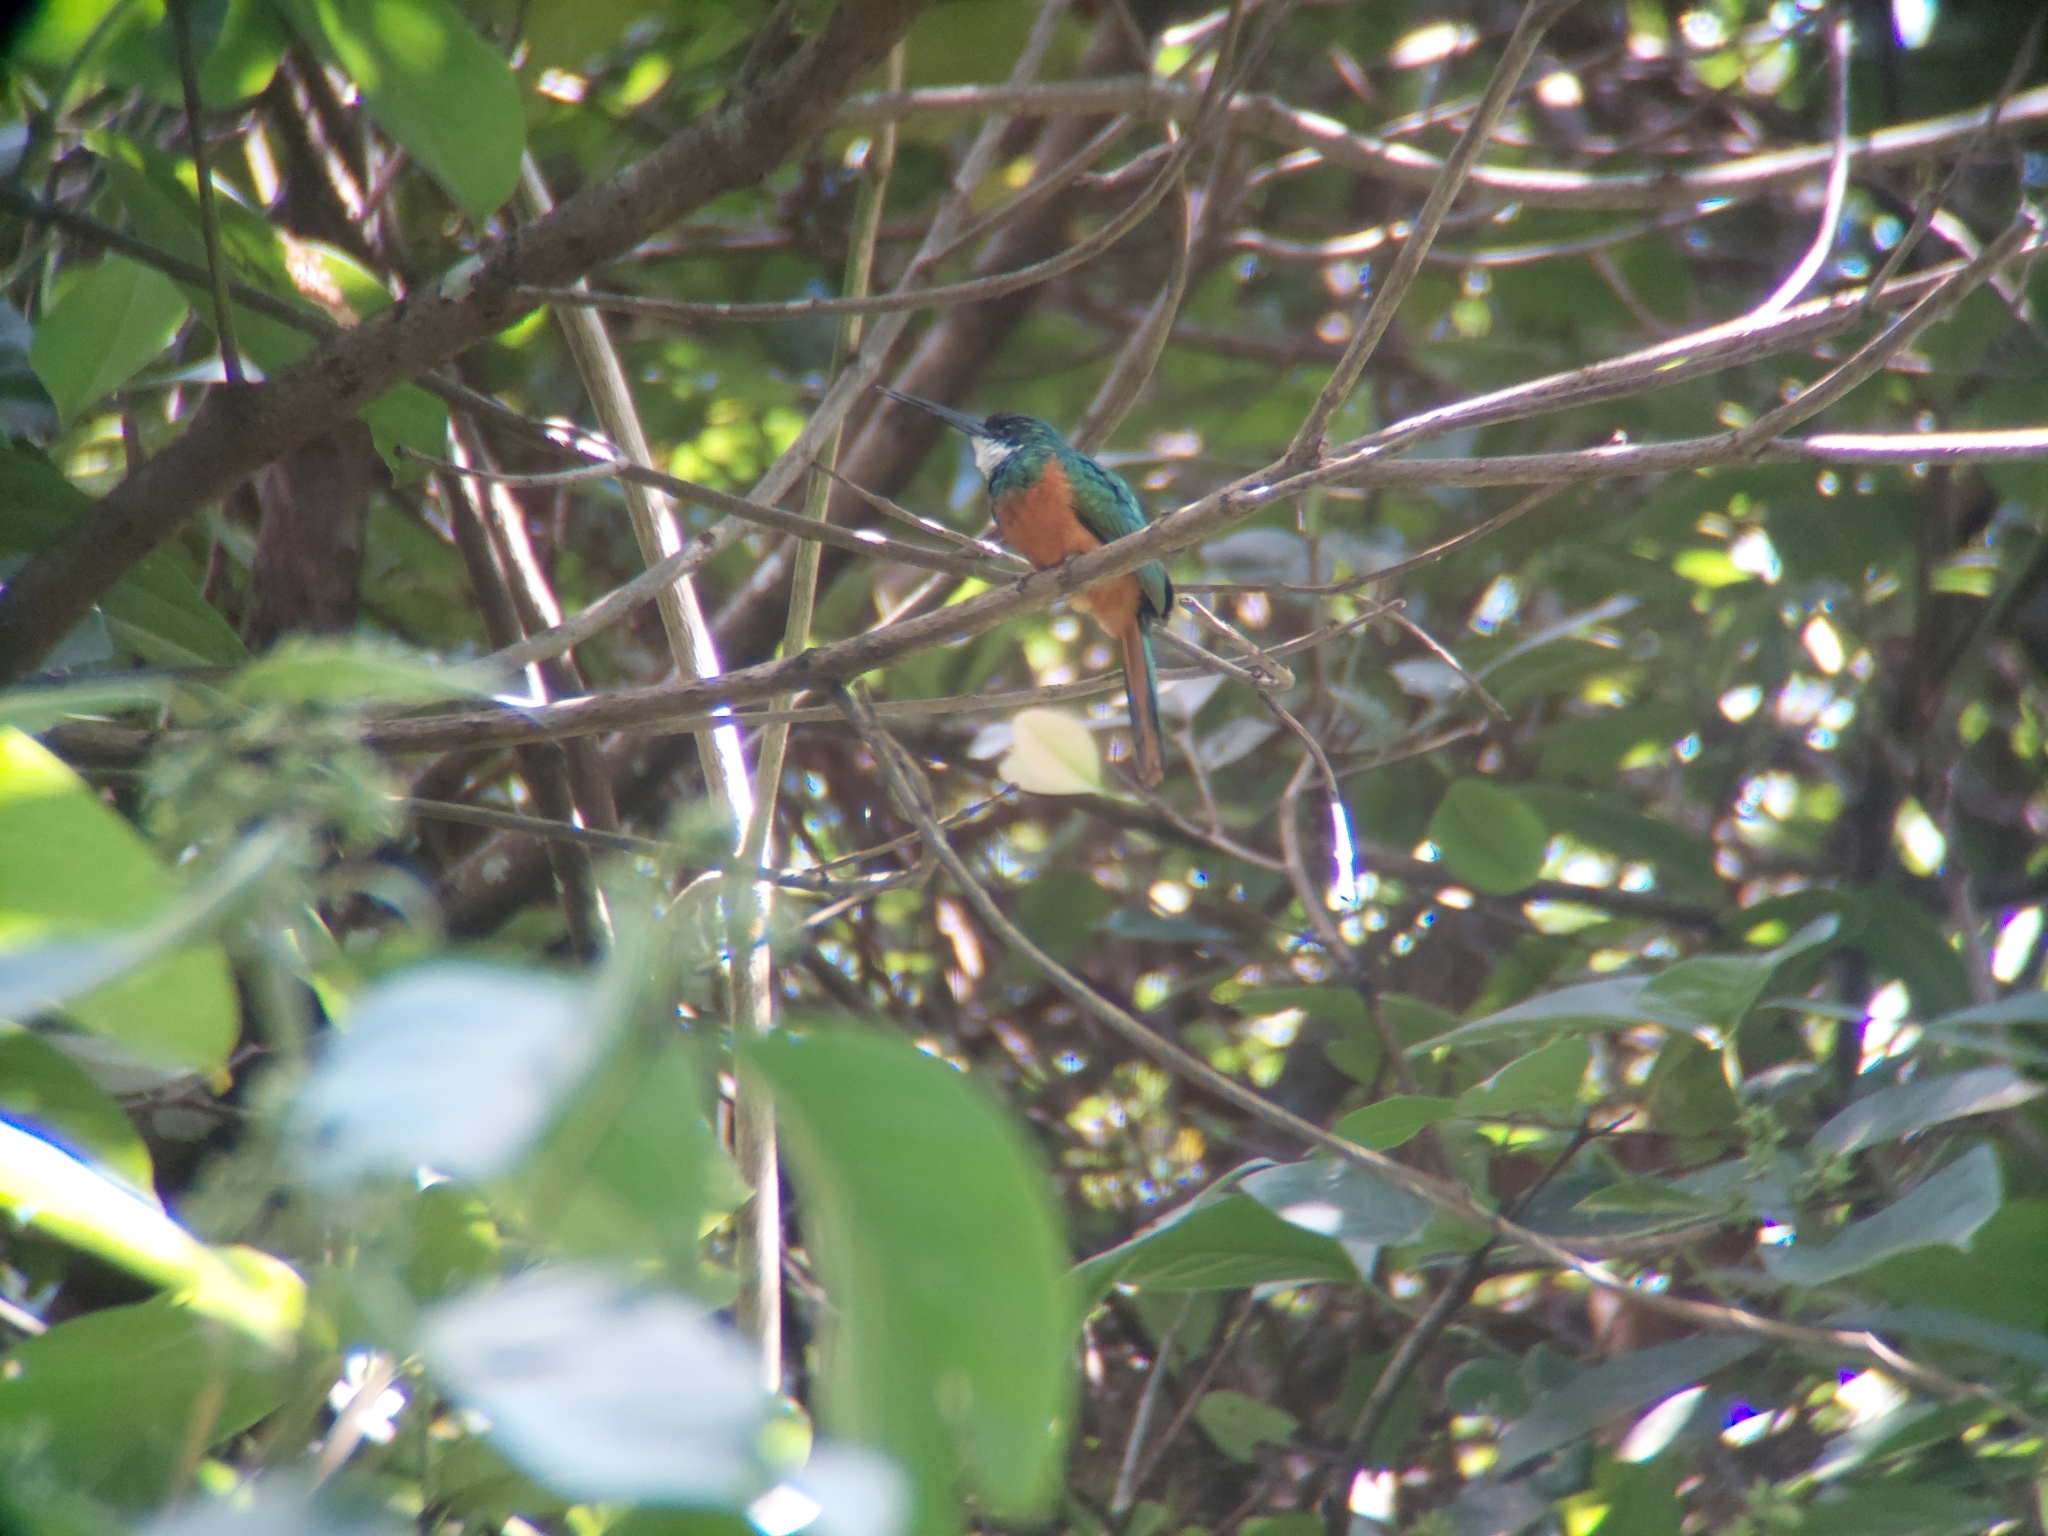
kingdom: Animalia
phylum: Chordata
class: Aves
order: Piciformes
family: Galbulidae
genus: Galbula
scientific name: Galbula ruficauda
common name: Rufous-tailed jacamar
